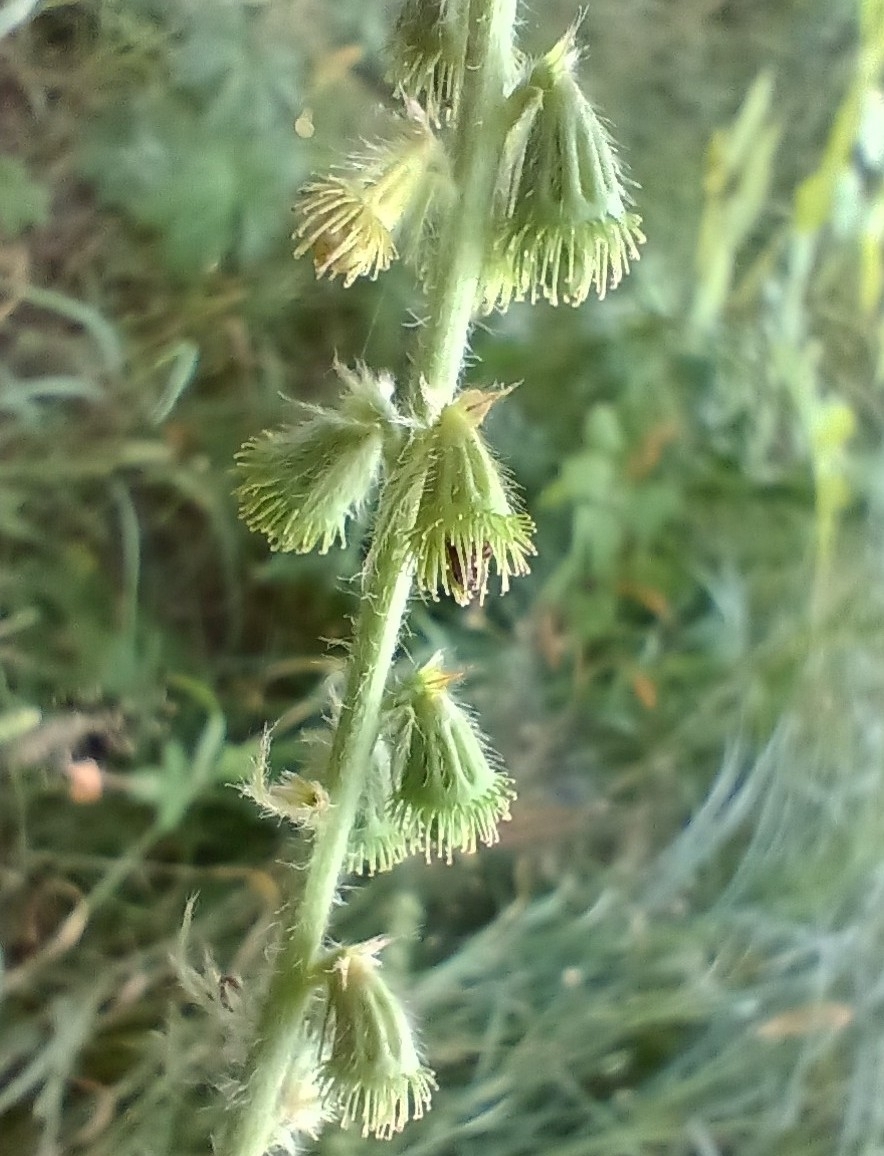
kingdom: Plantae
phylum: Tracheophyta
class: Magnoliopsida
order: Rosales
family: Rosaceae
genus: Agrimonia
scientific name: Agrimonia eupatoria
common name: Agrimony
